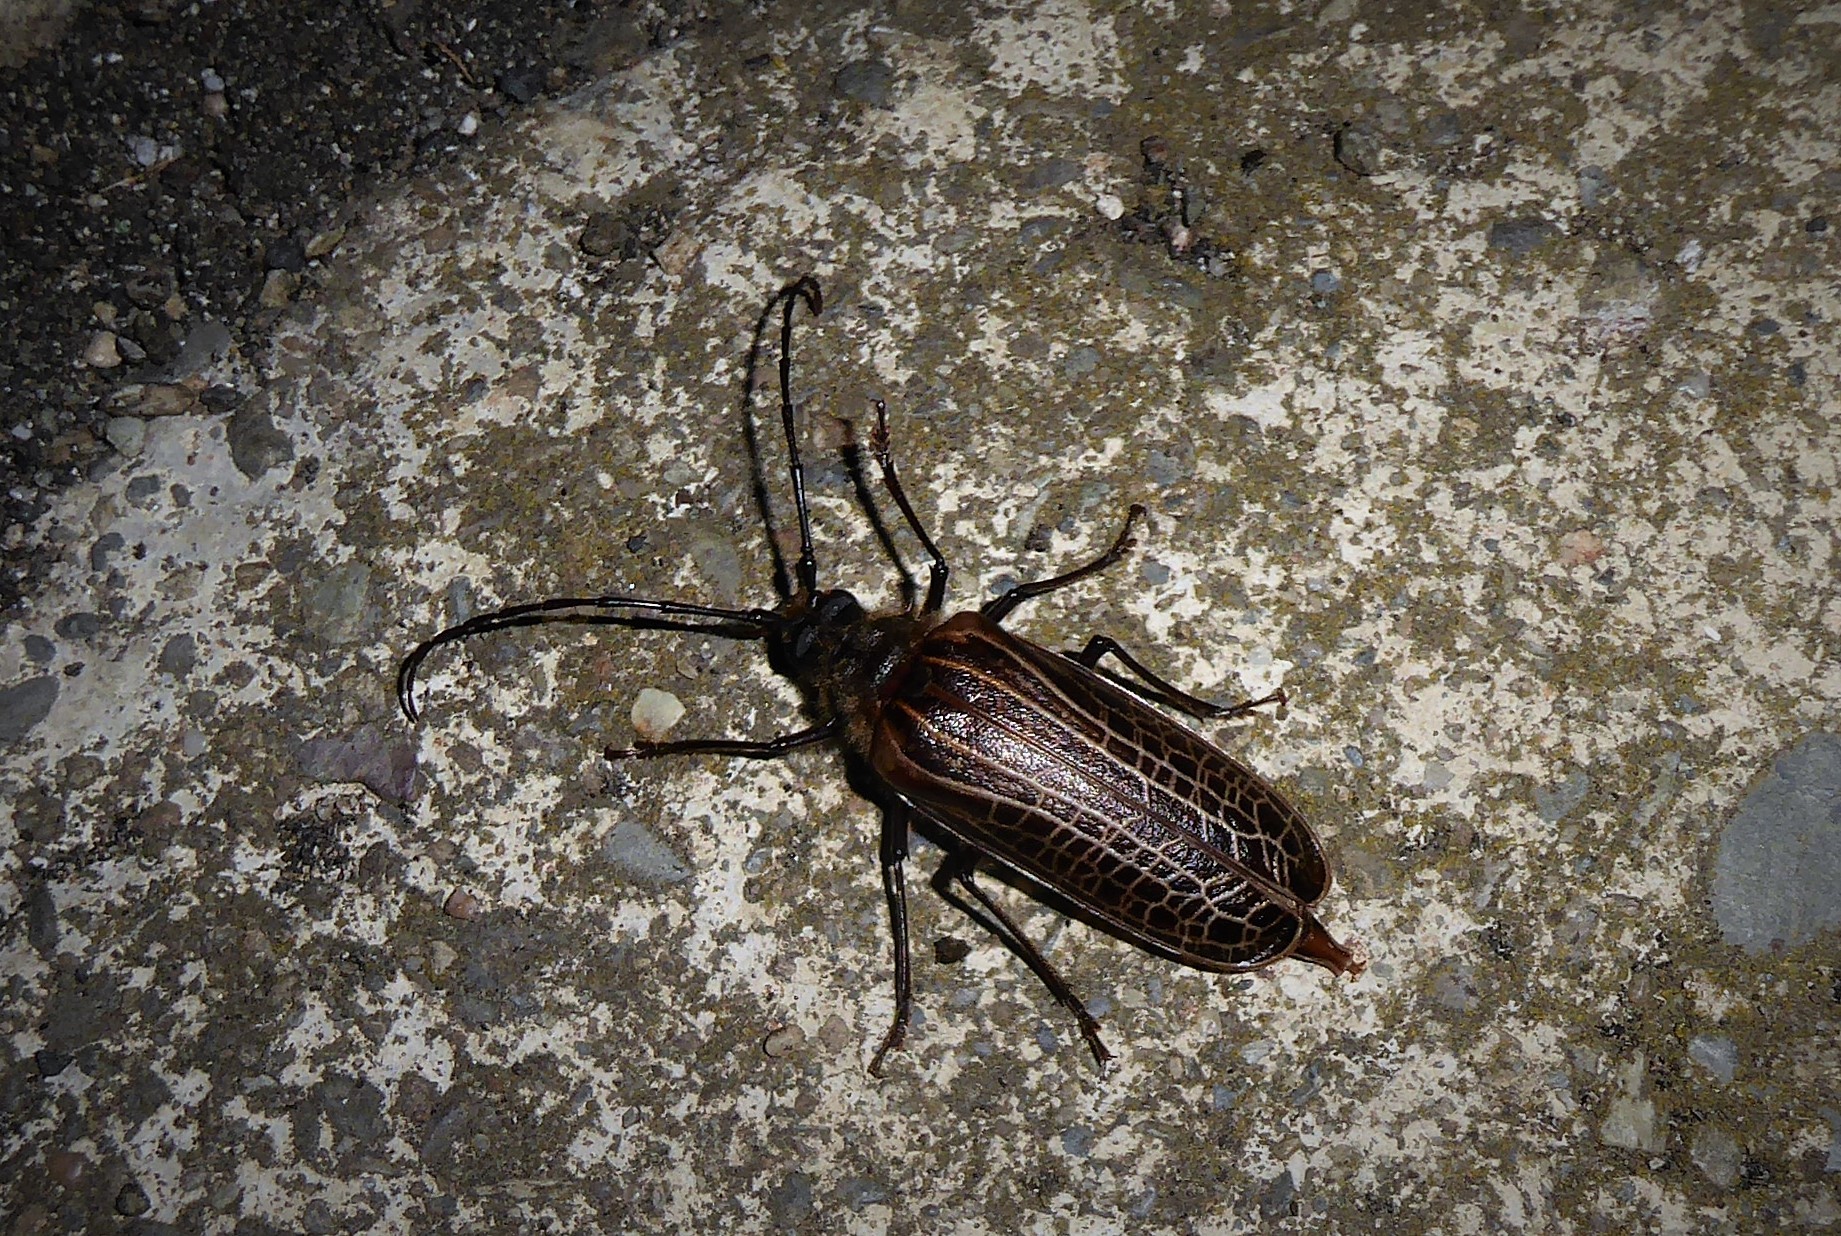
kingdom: Animalia
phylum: Arthropoda
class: Insecta
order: Coleoptera
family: Cerambycidae
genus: Prionoplus
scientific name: Prionoplus reticularis
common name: Huhu beetle
